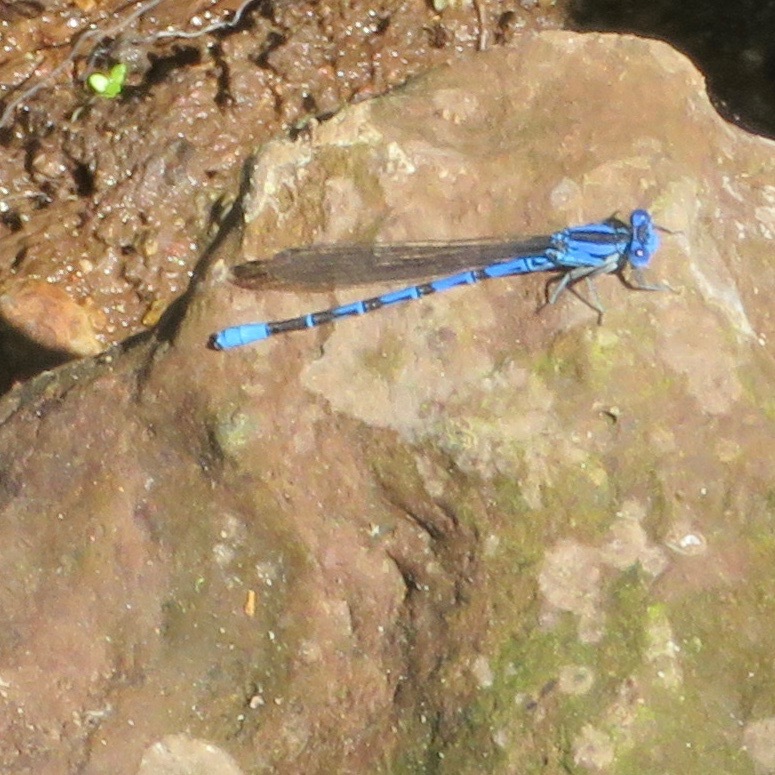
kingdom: Animalia
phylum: Arthropoda
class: Insecta
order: Odonata
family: Coenagrionidae
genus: Argia
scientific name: Argia vivida
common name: Vivid dancer
